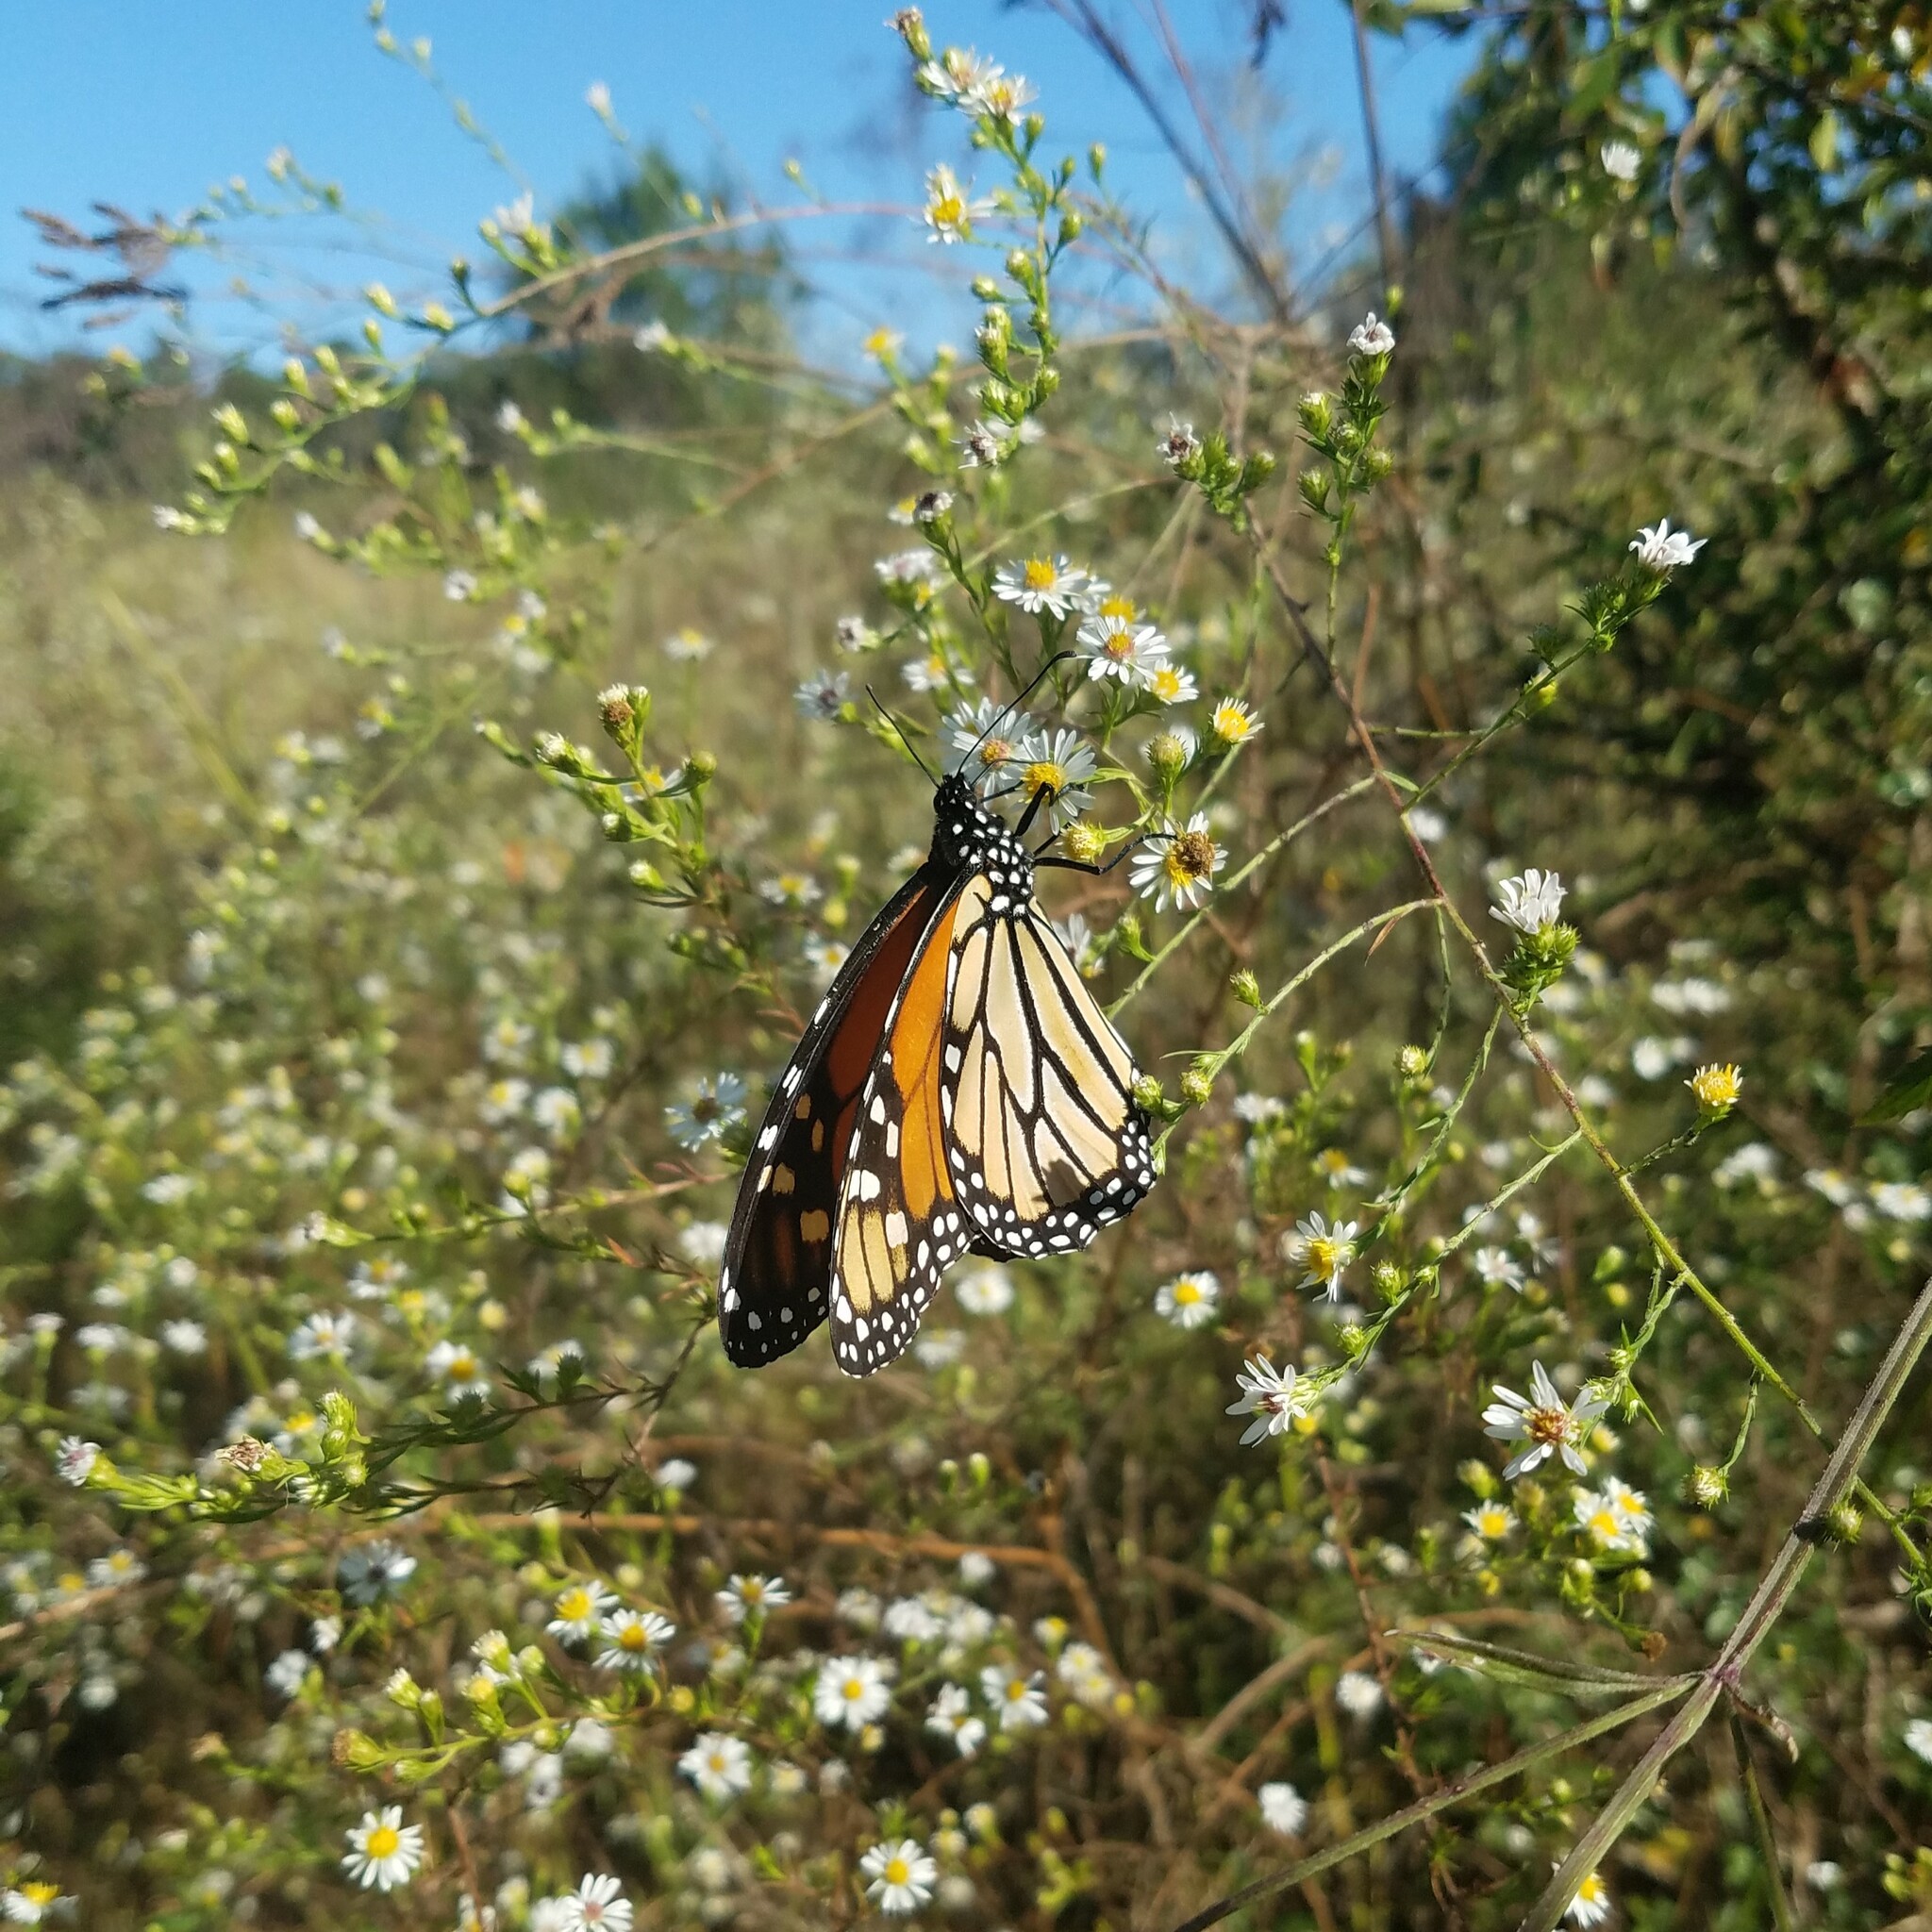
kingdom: Animalia
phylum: Arthropoda
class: Insecta
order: Lepidoptera
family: Nymphalidae
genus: Danaus
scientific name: Danaus plexippus
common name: Monarch
